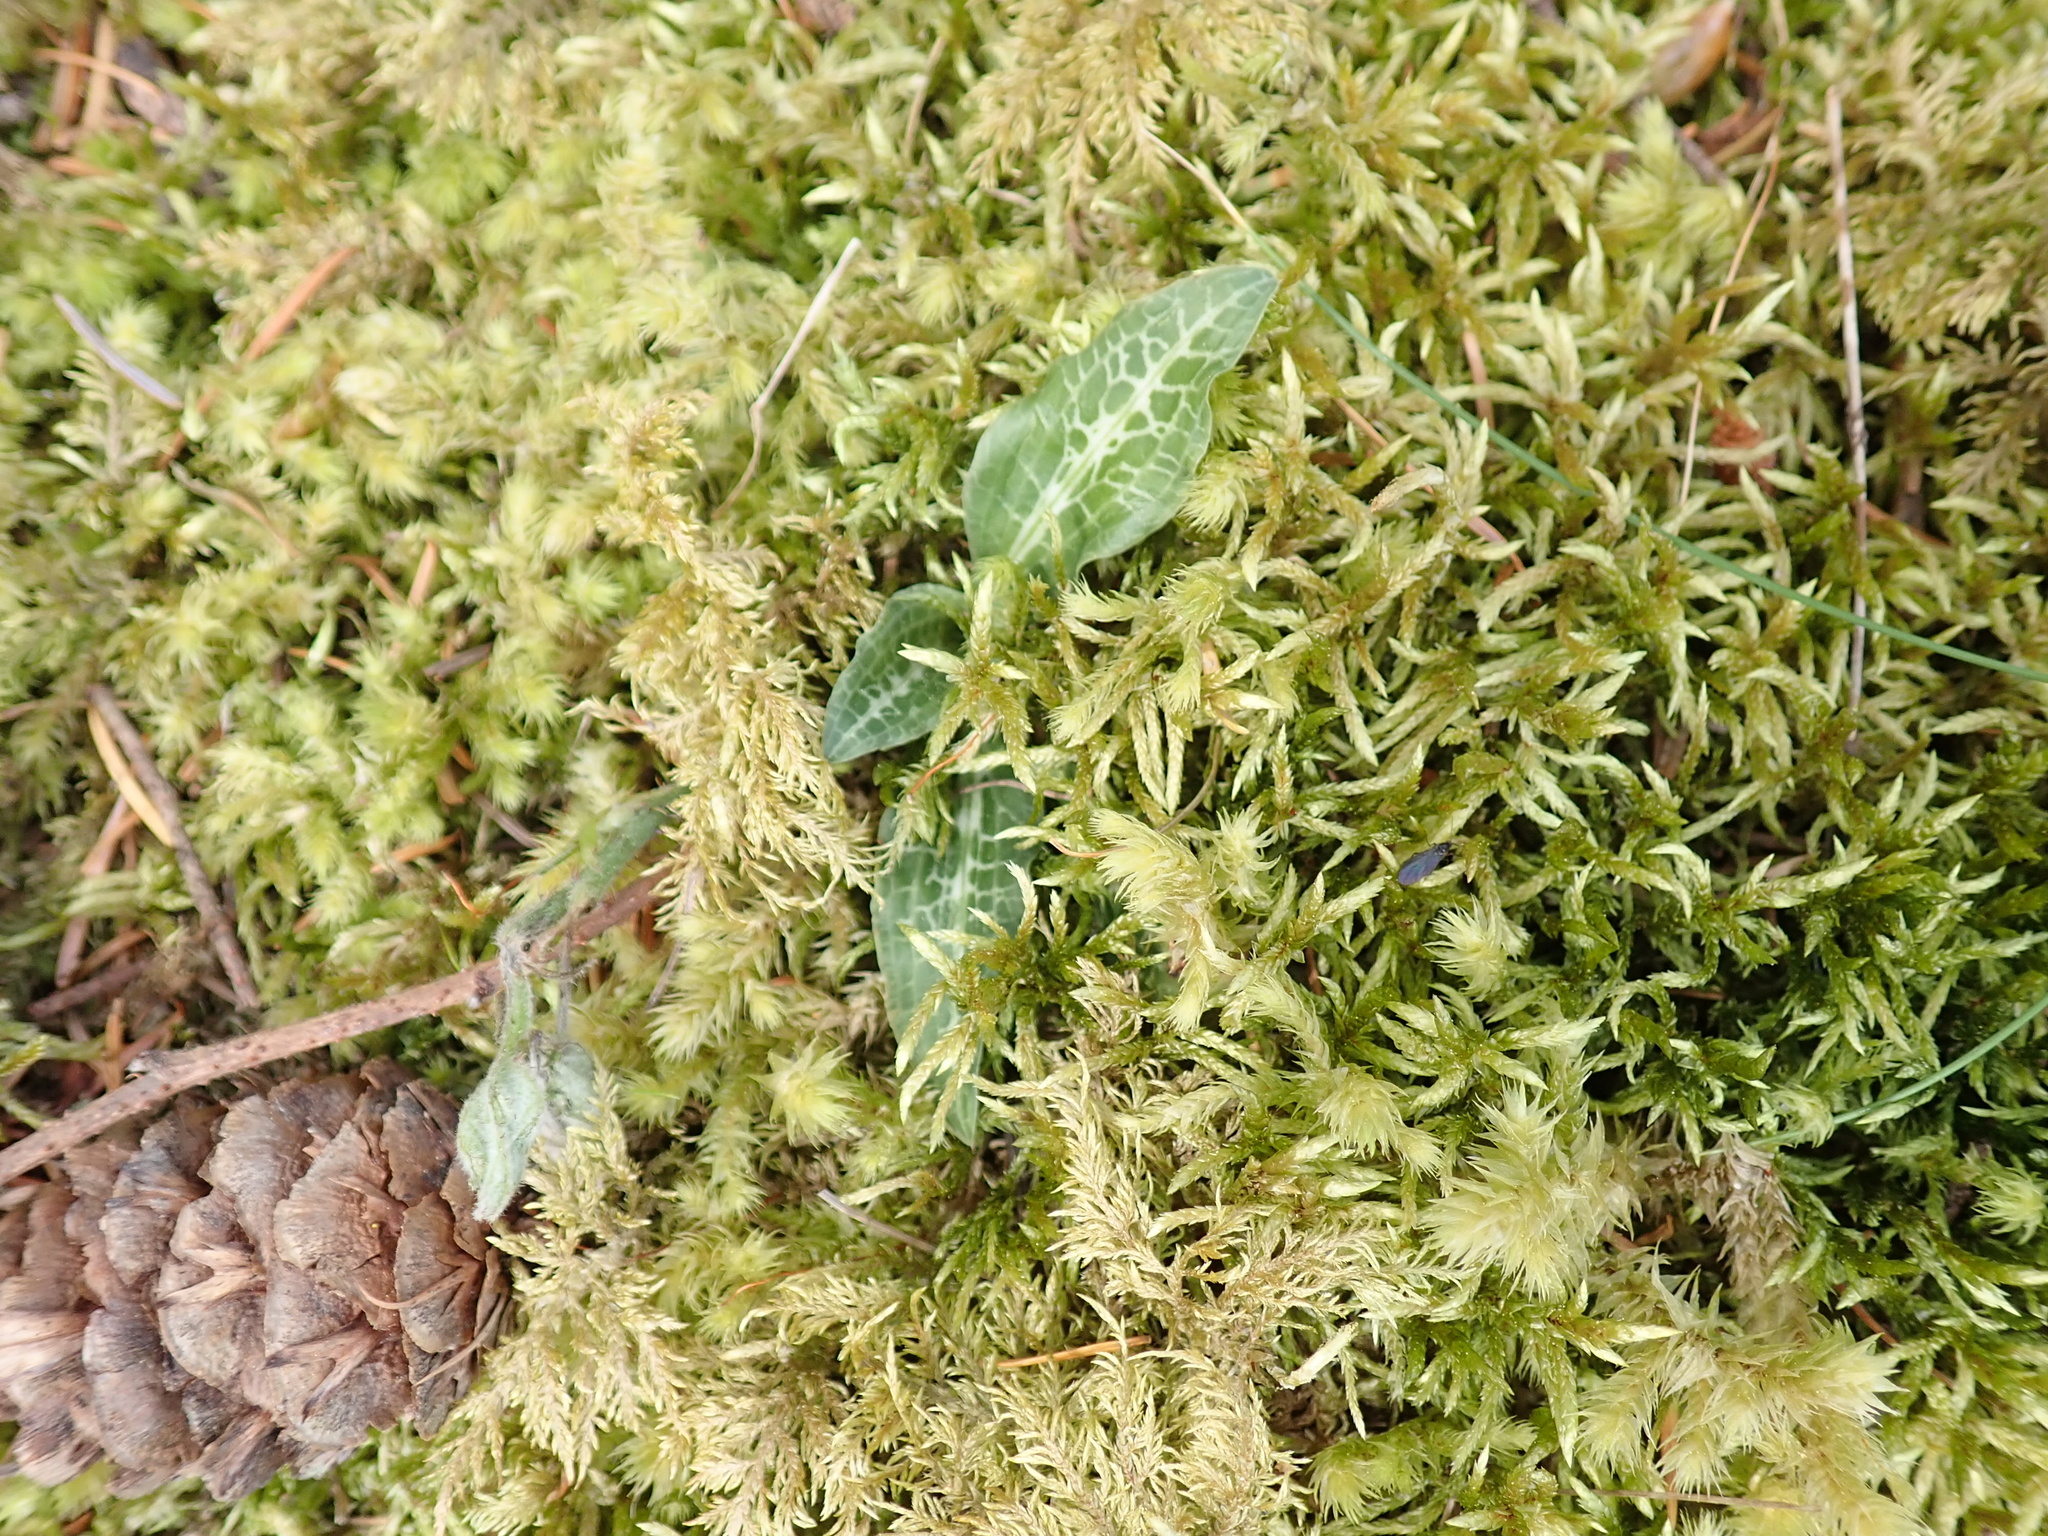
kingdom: Plantae
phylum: Tracheophyta
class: Liliopsida
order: Asparagales
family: Orchidaceae
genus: Goodyera
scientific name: Goodyera oblongifolia
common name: Giant rattlesnake-plantain
